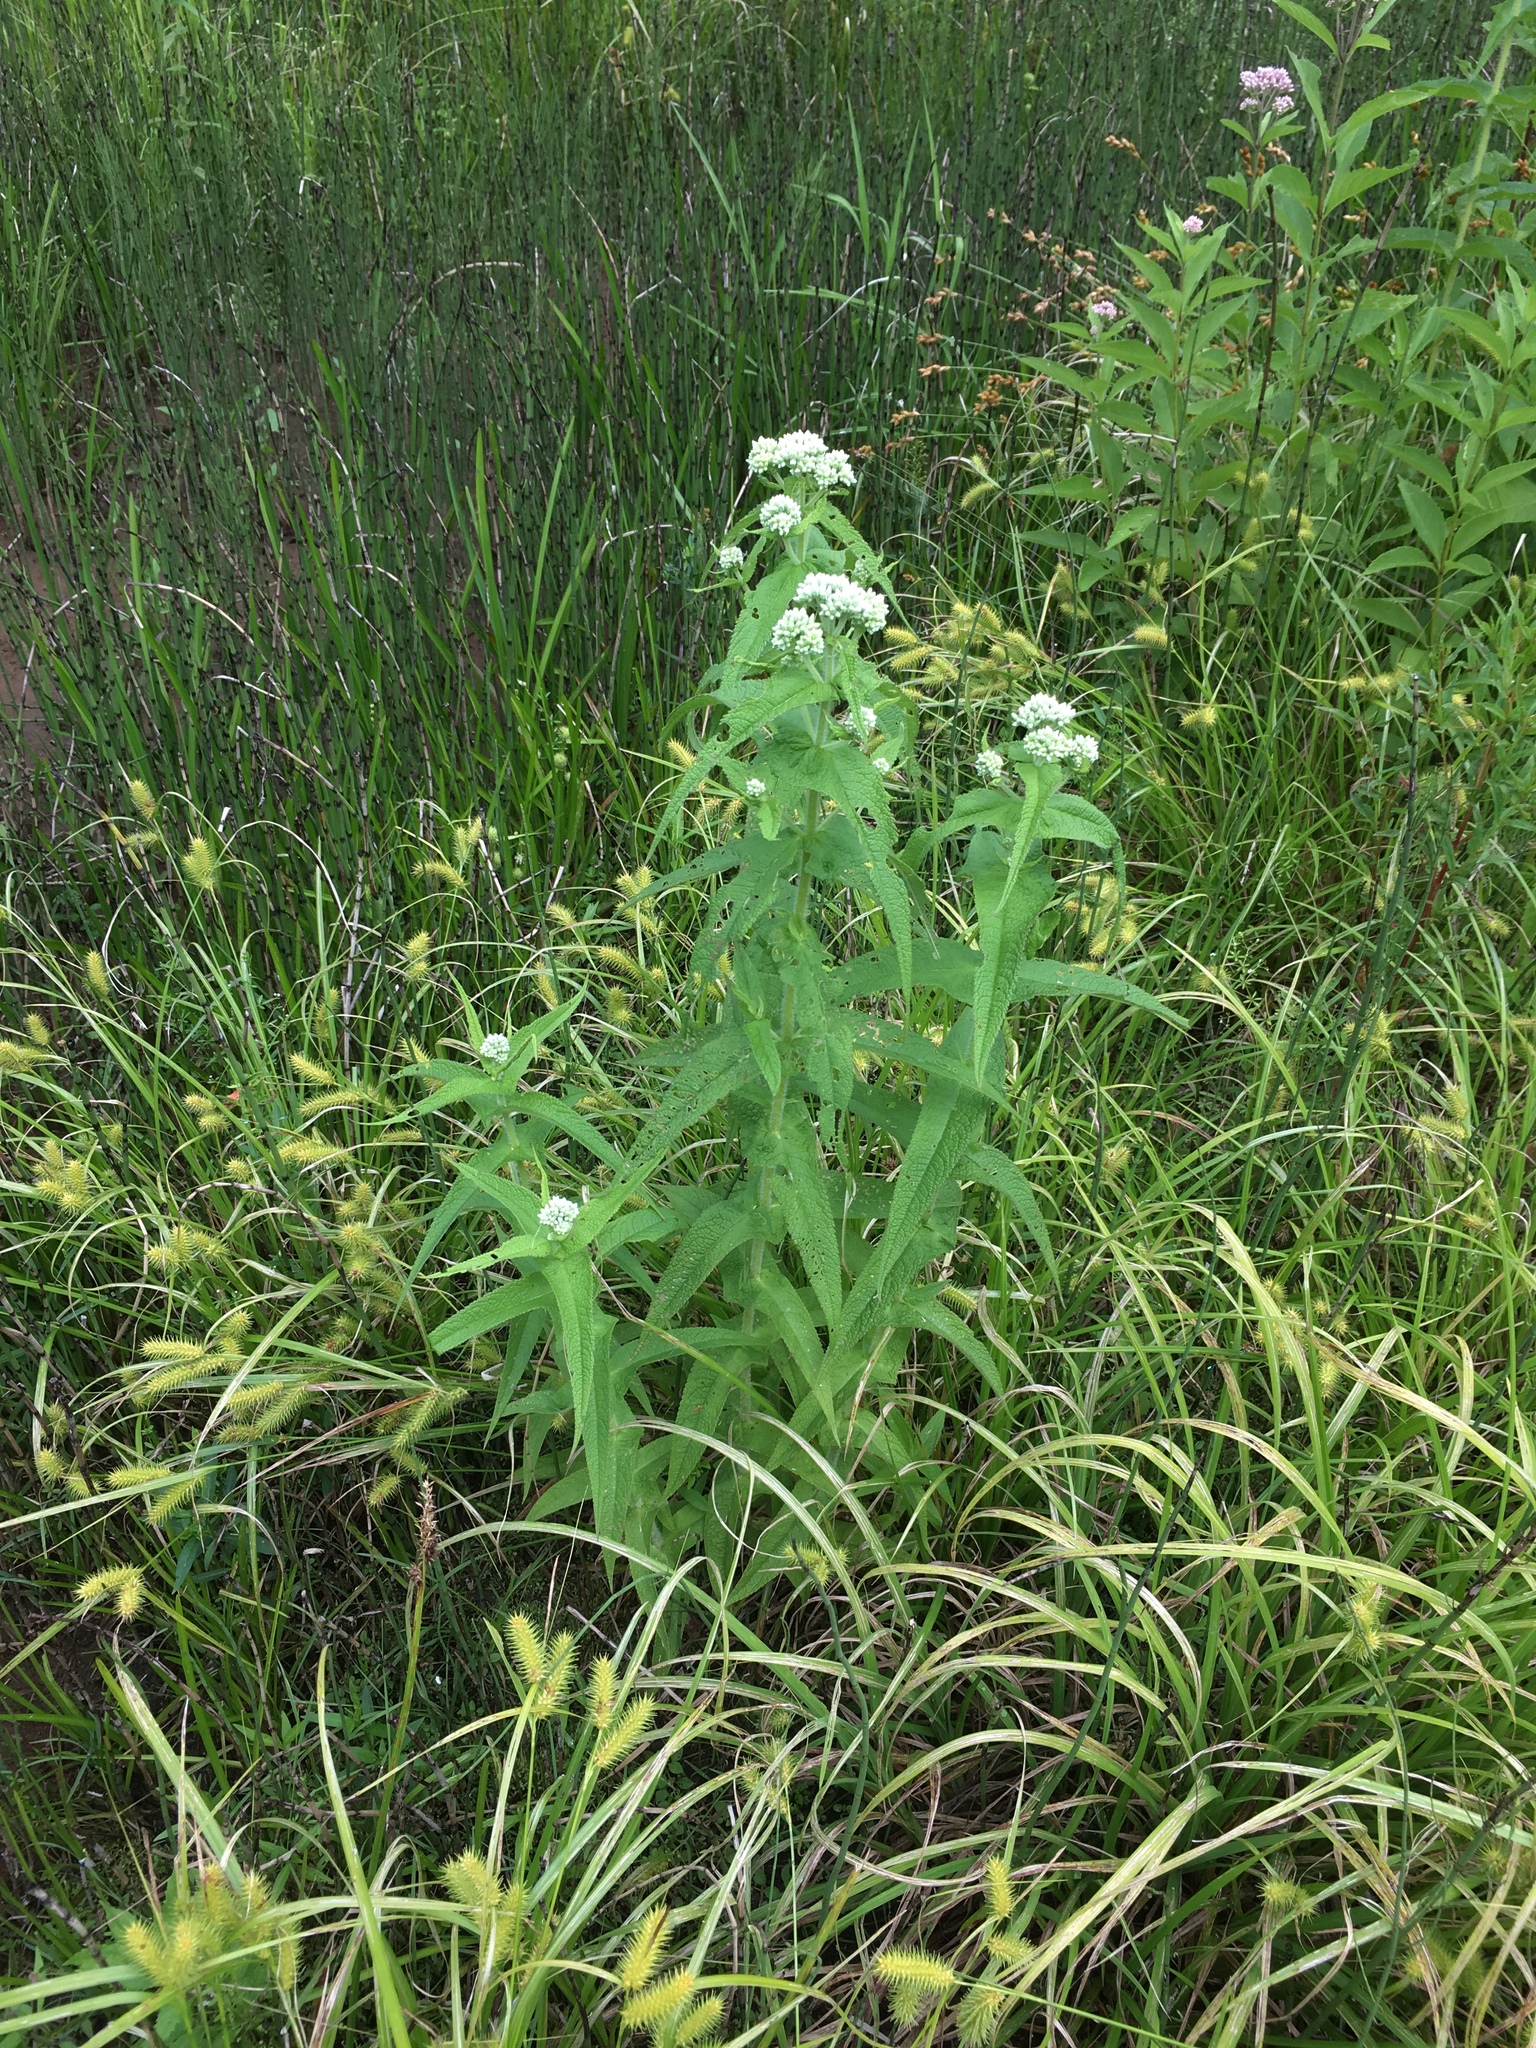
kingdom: Plantae
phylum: Tracheophyta
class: Magnoliopsida
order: Asterales
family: Asteraceae
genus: Eupatorium
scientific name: Eupatorium perfoliatum
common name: Boneset
